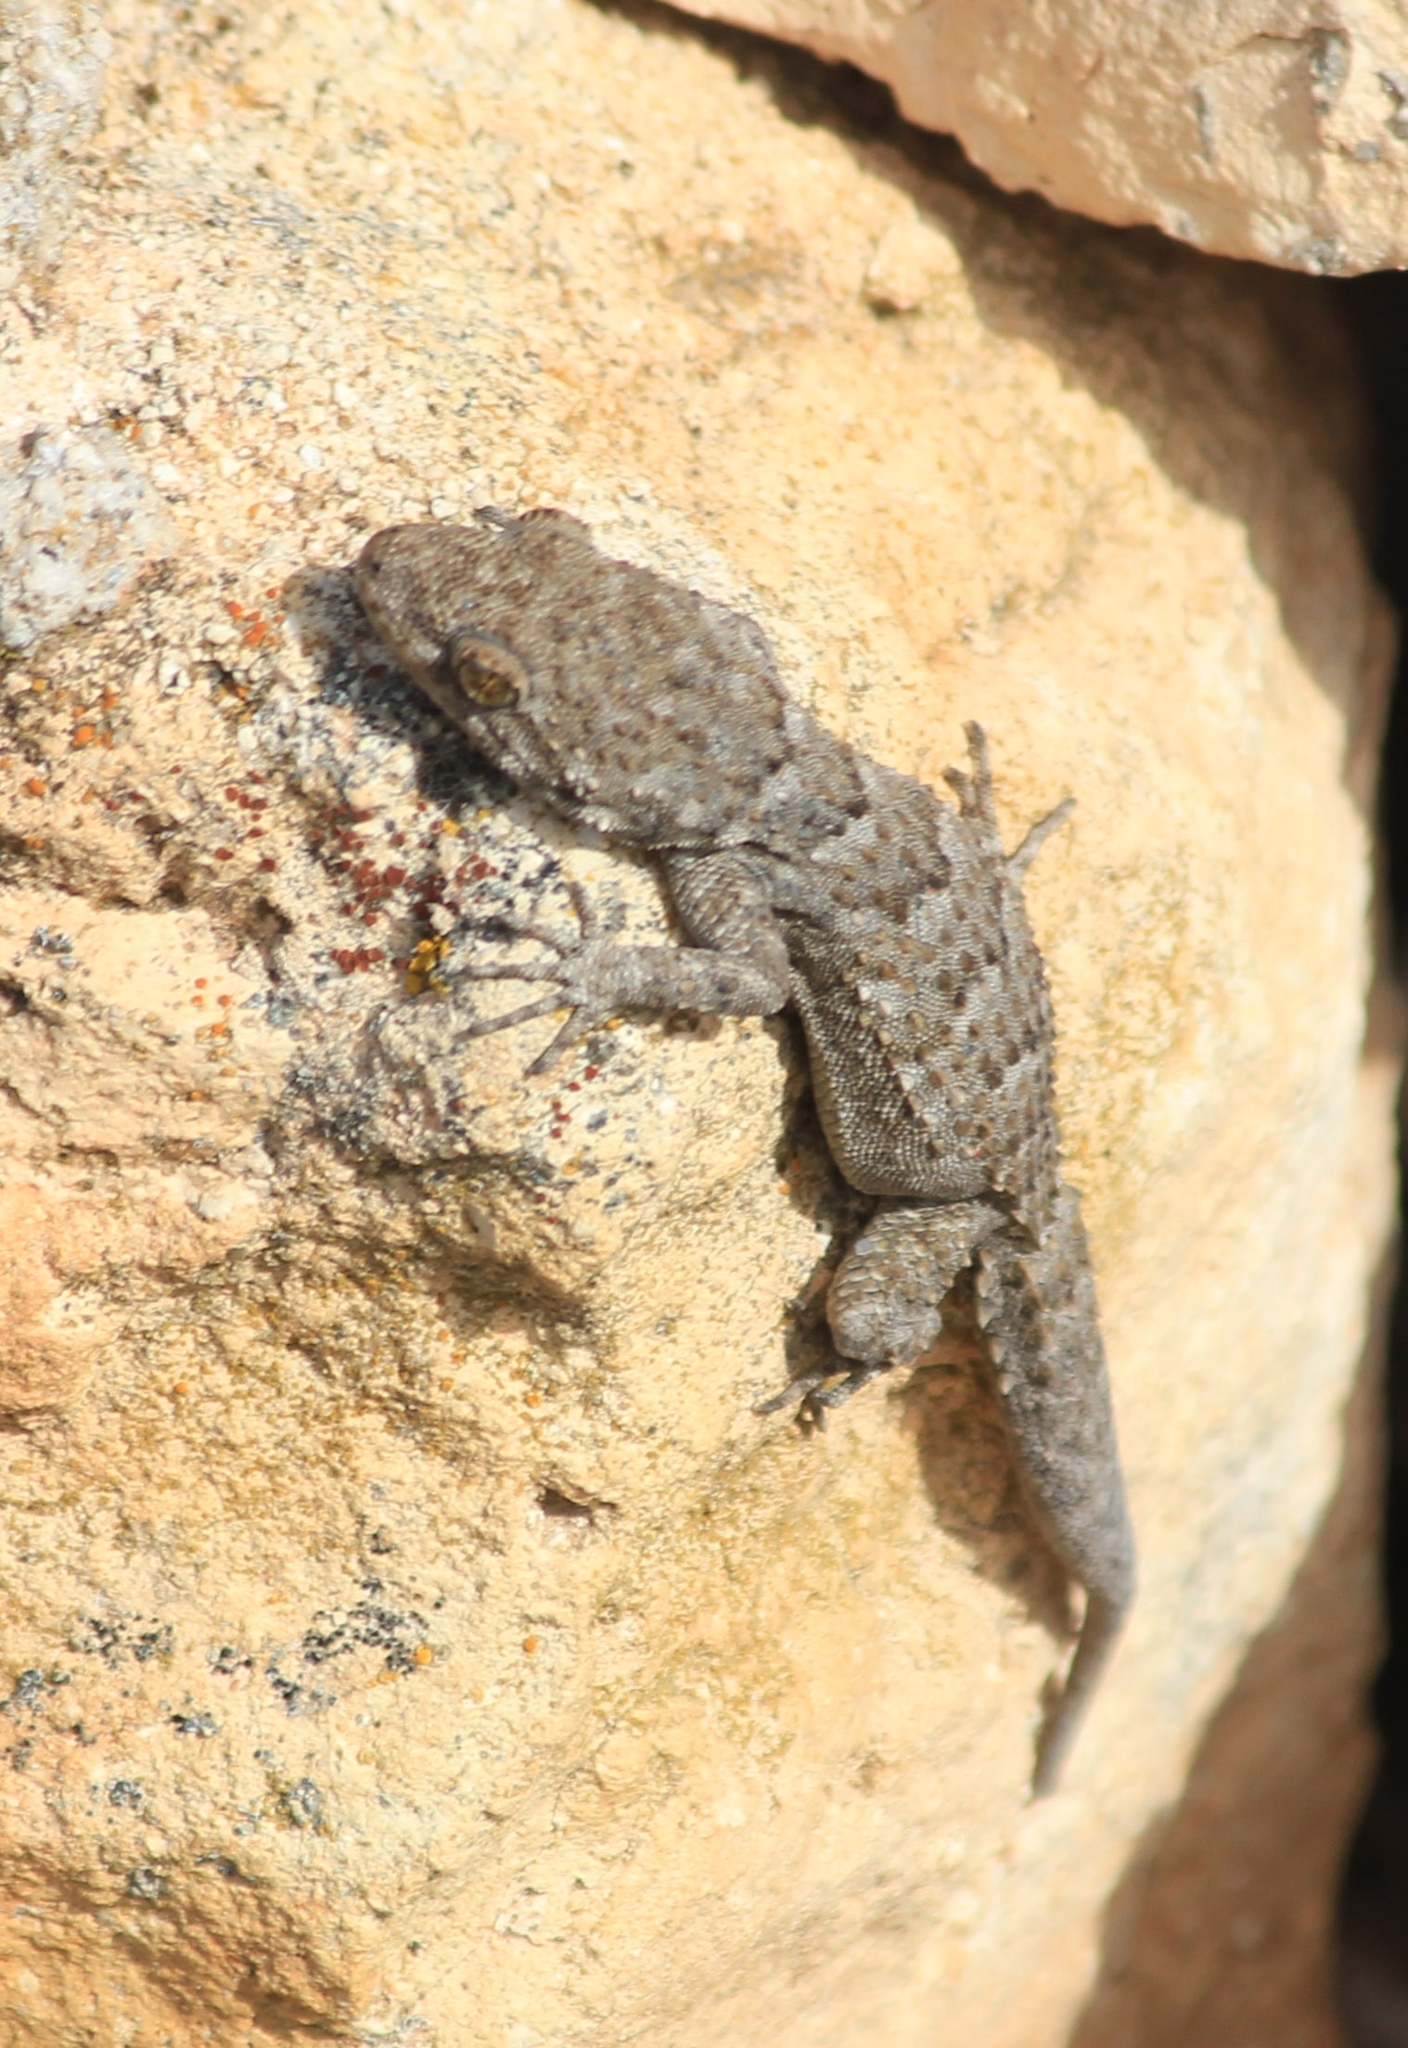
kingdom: Animalia
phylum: Chordata
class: Squamata
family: Gekkonidae
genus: Mediodactylus
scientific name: Mediodactylus kotschyi
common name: Kotschy's gecko
